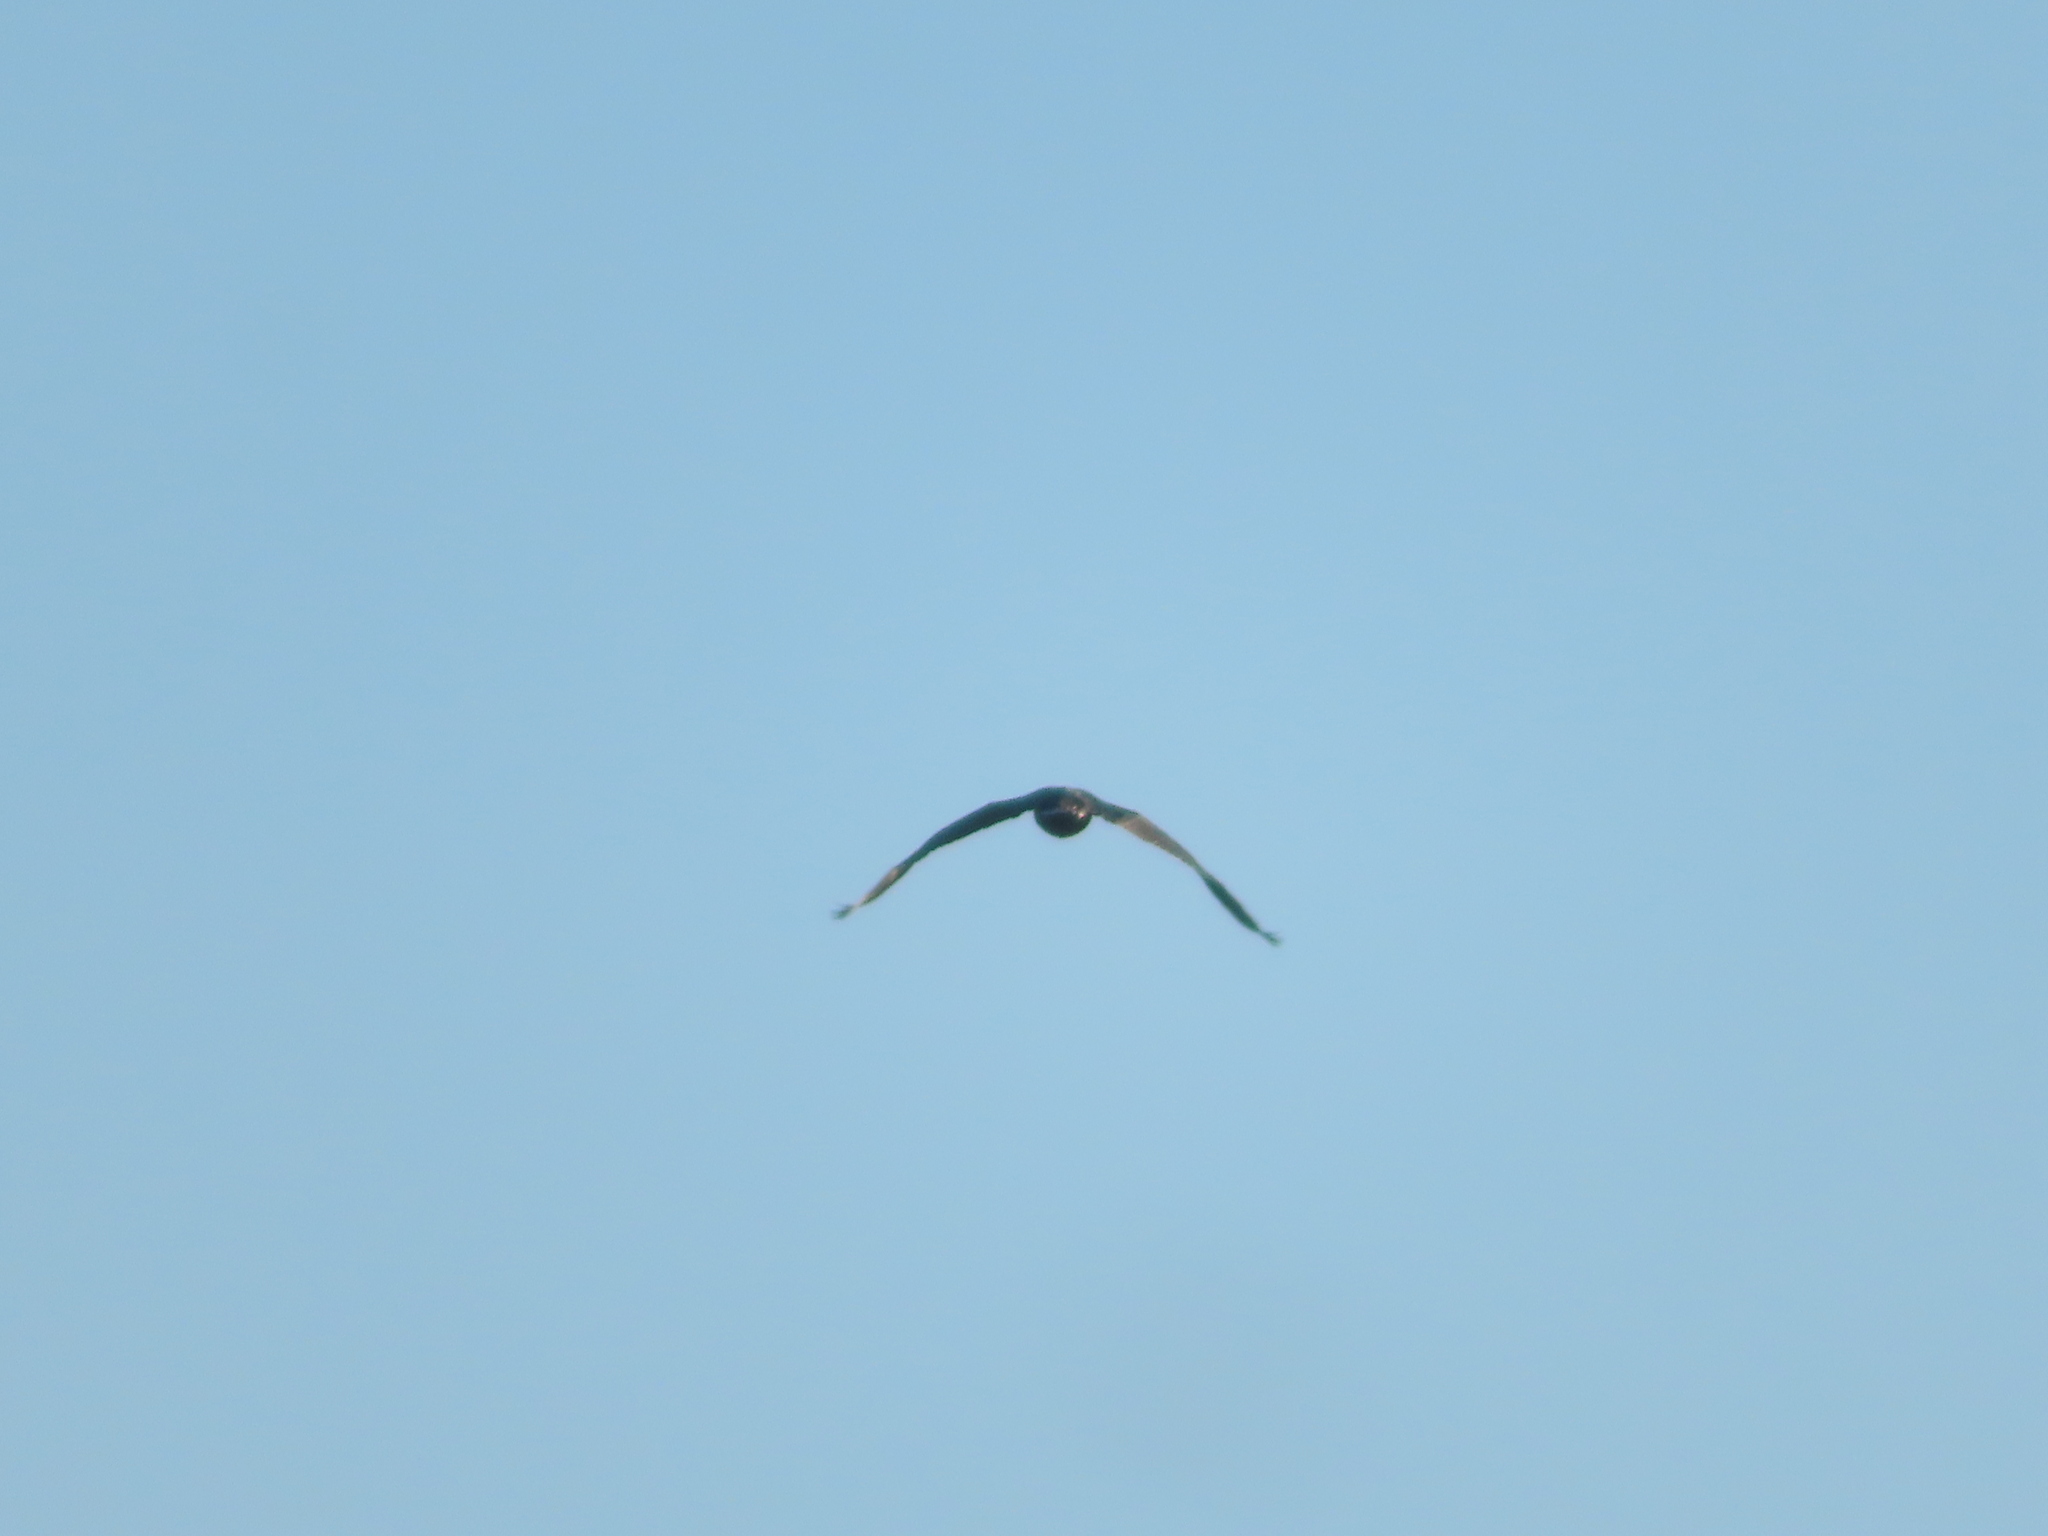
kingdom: Animalia
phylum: Chordata
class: Aves
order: Suliformes
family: Phalacrocoracidae
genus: Phalacrocorax
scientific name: Phalacrocorax auritus
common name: Double-crested cormorant
